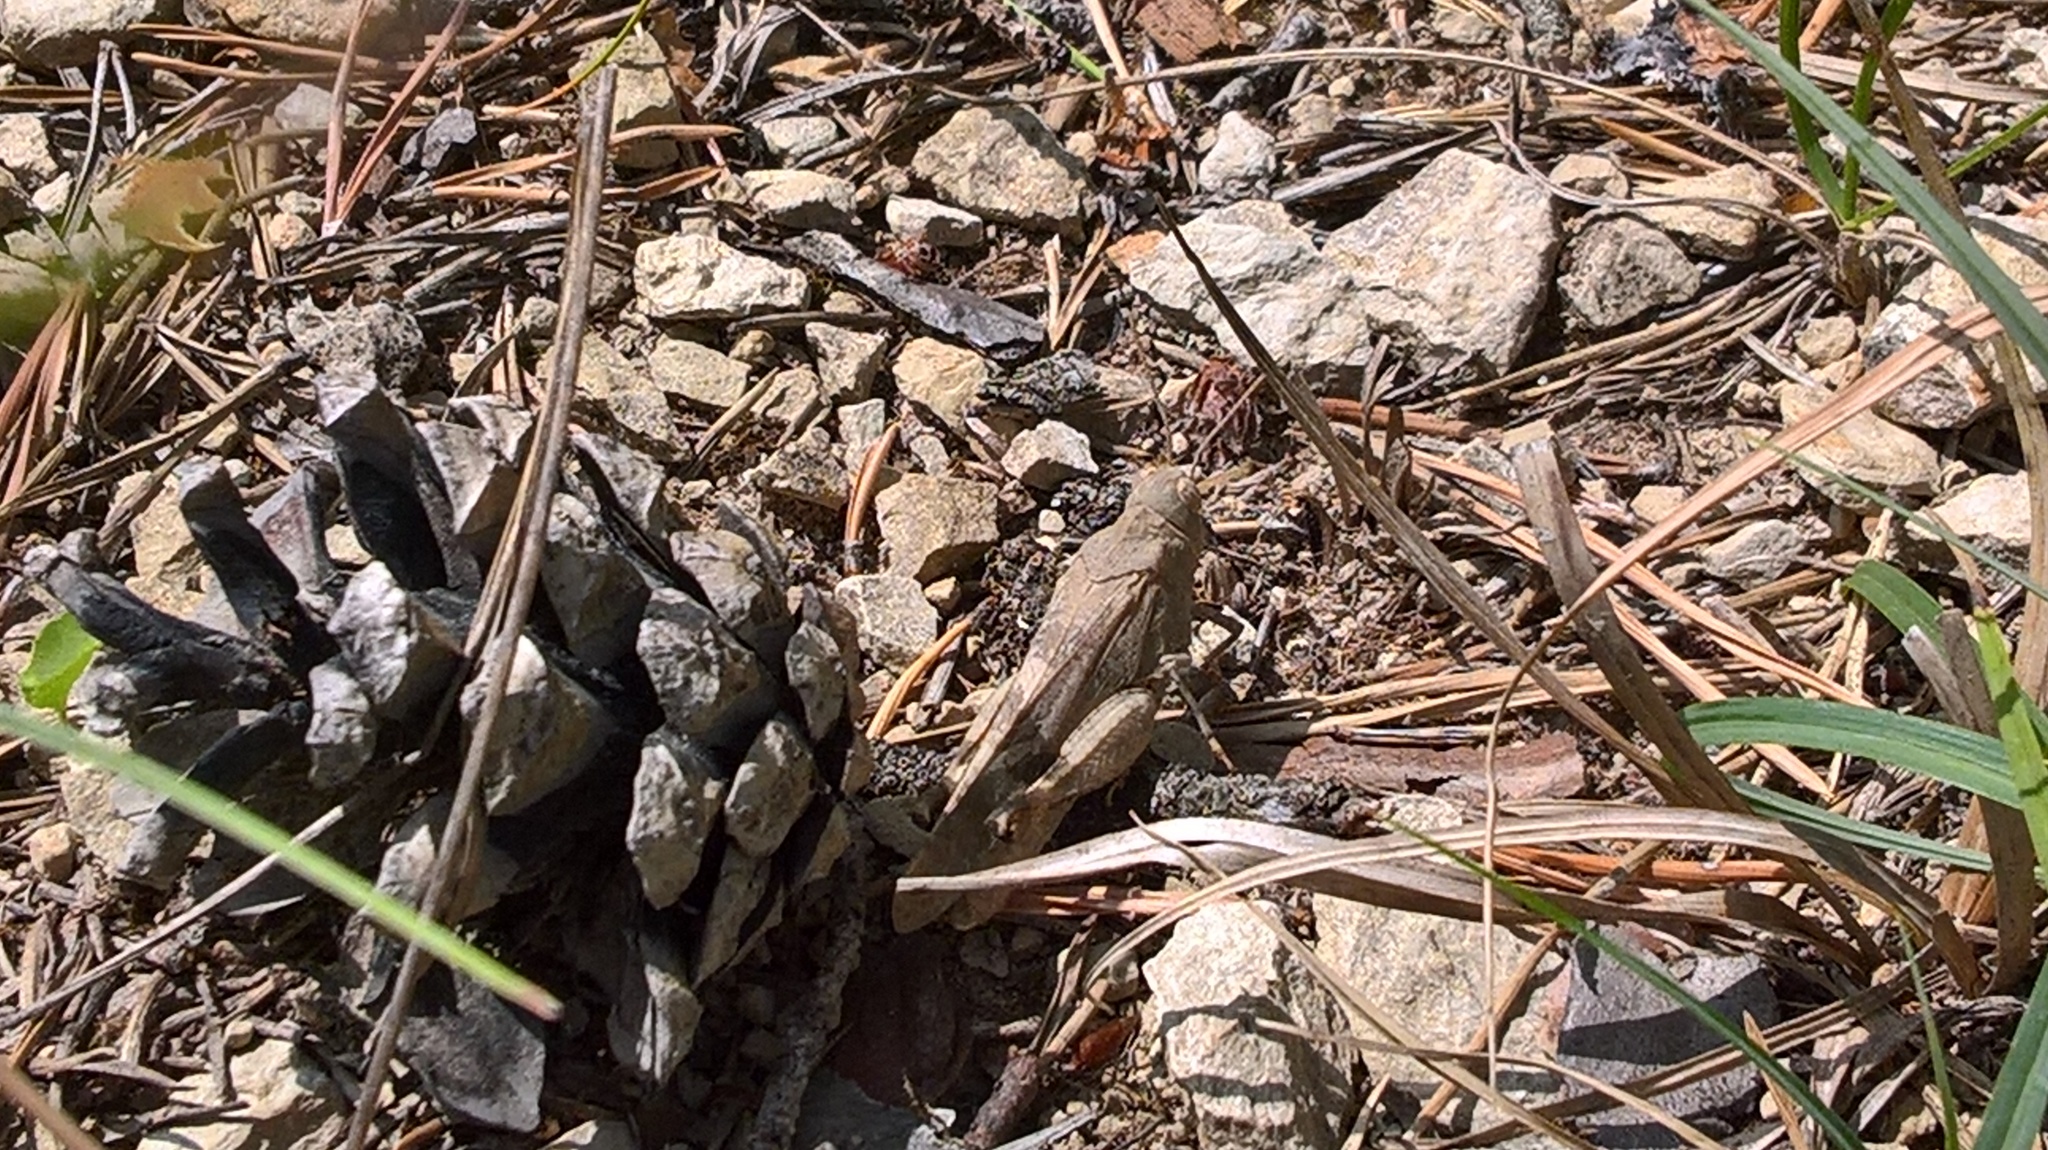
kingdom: Animalia
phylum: Arthropoda
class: Insecta
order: Orthoptera
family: Acrididae
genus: Oedipoda
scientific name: Oedipoda caerulescens
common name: Blue-winged grasshopper
